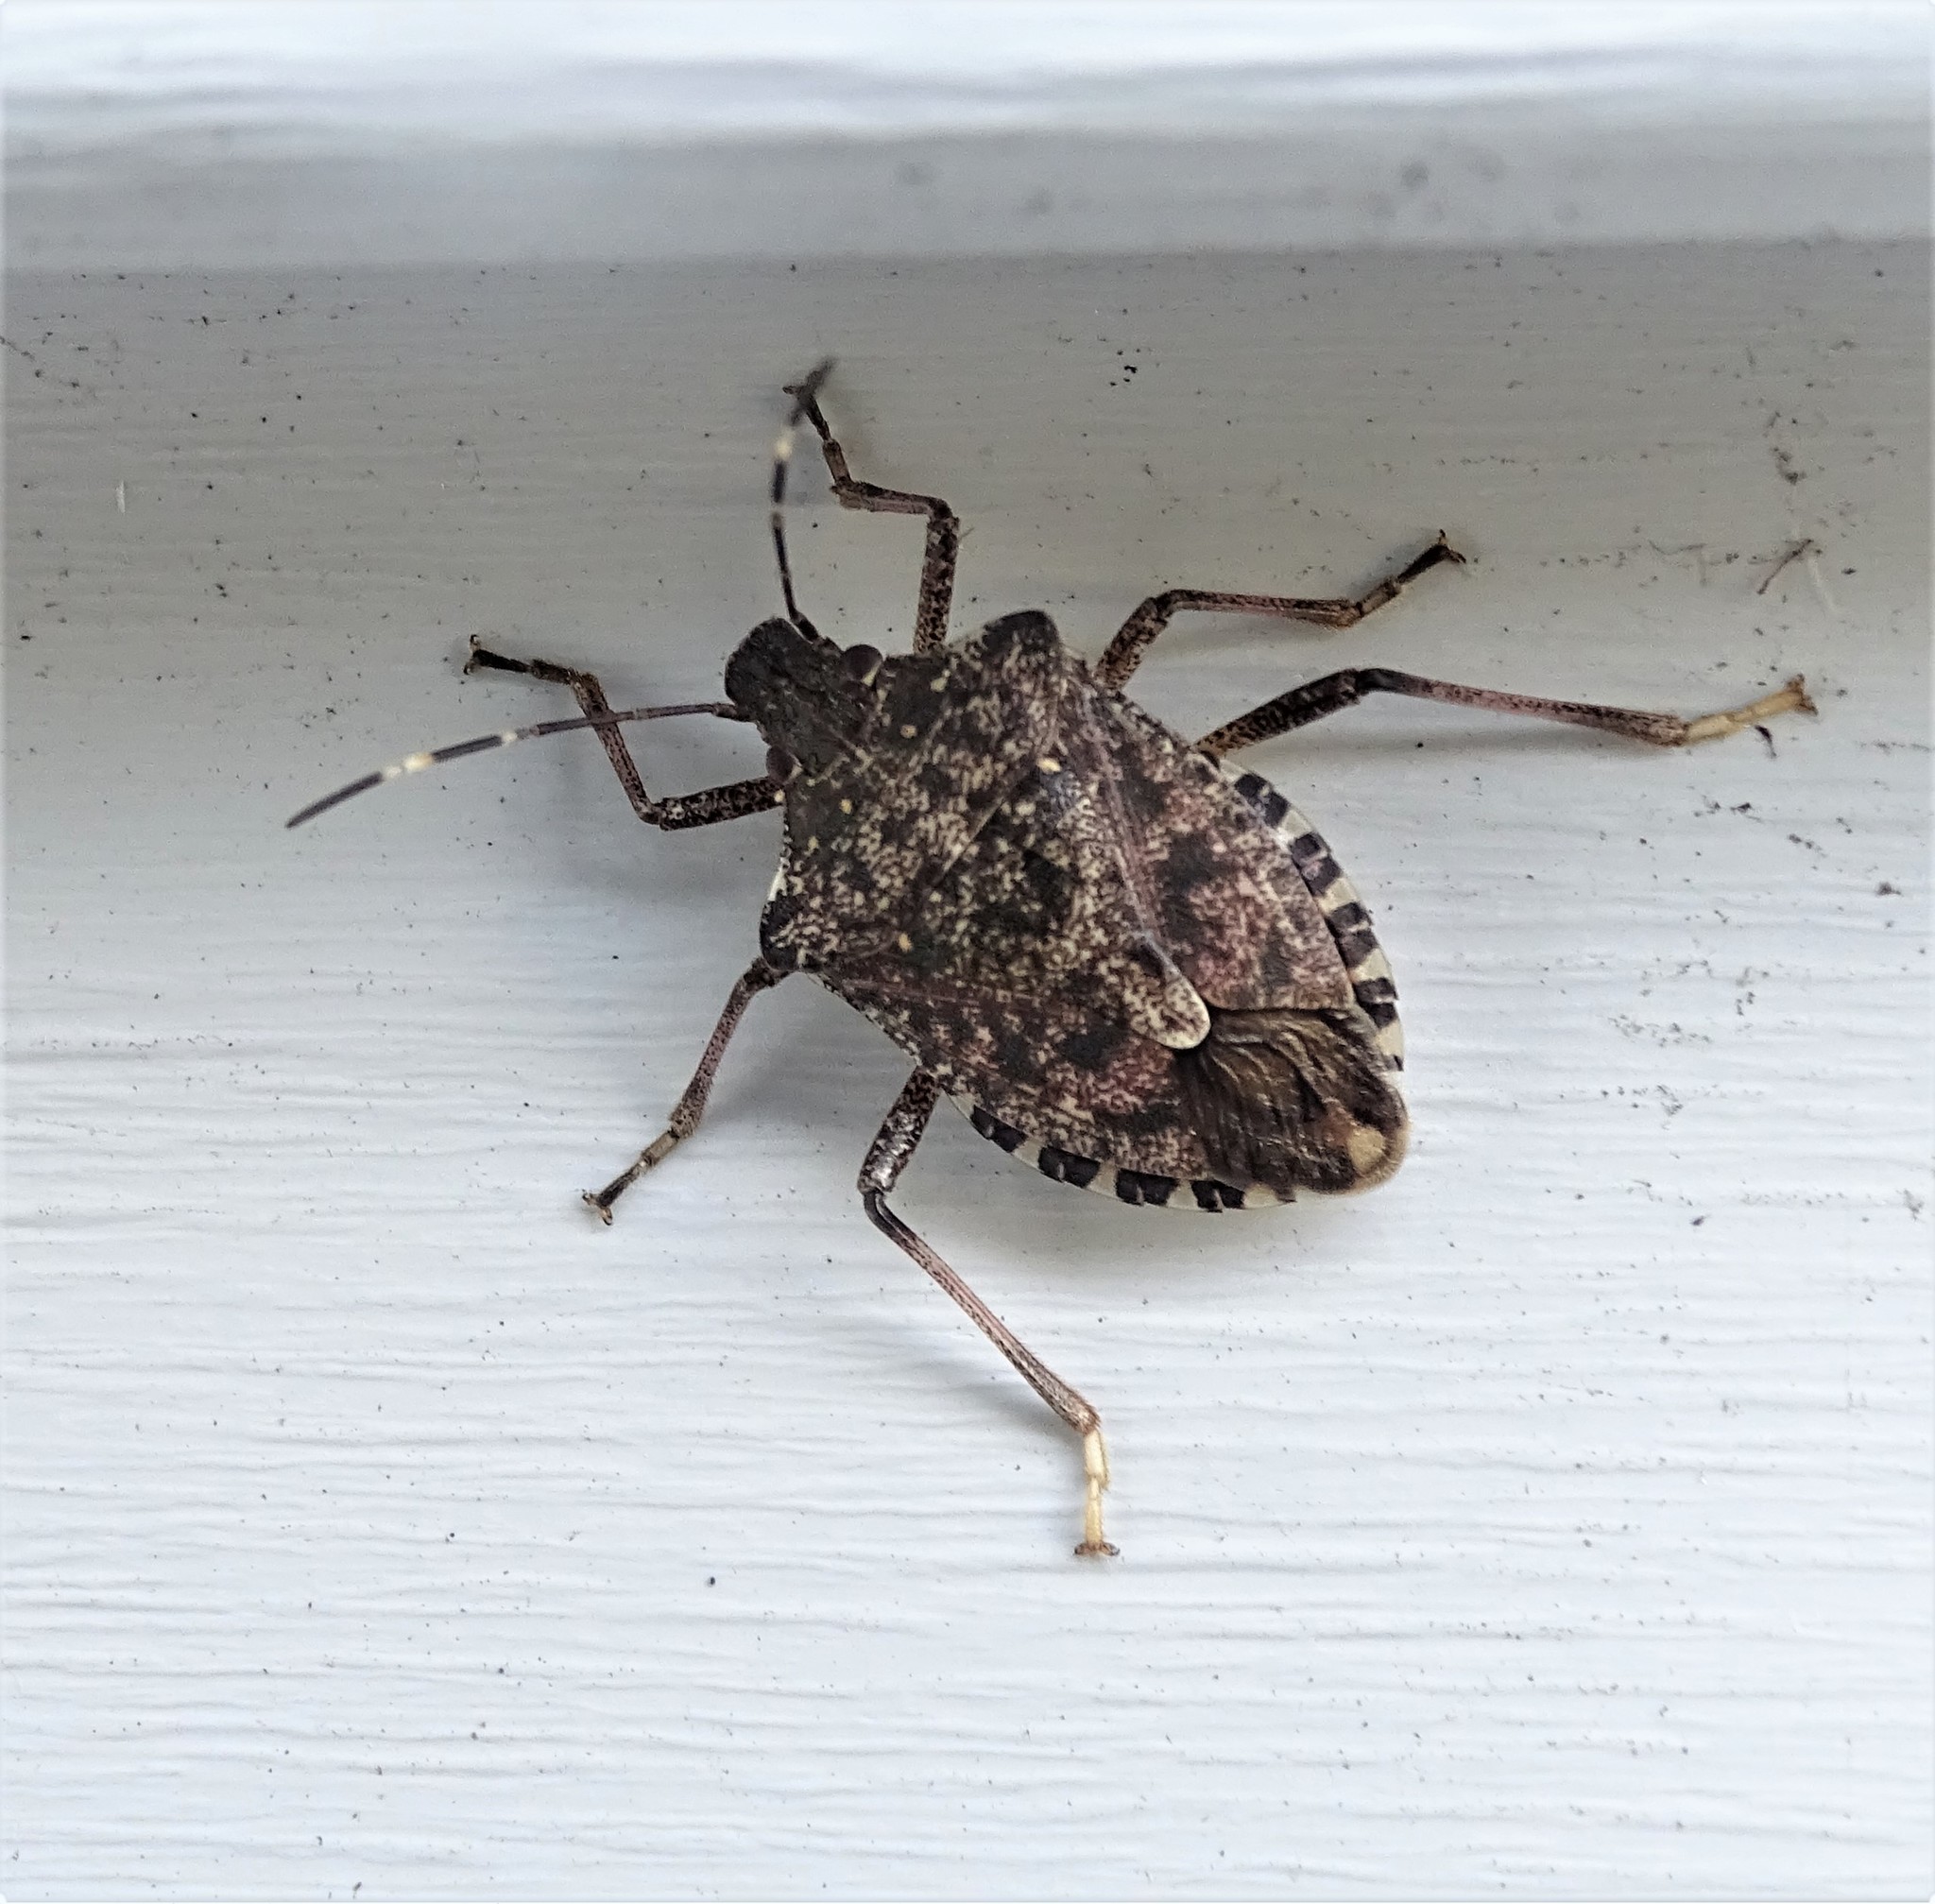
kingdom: Animalia
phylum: Arthropoda
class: Insecta
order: Hemiptera
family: Pentatomidae
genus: Halyomorpha
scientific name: Halyomorpha halys
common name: Brown marmorated stink bug
